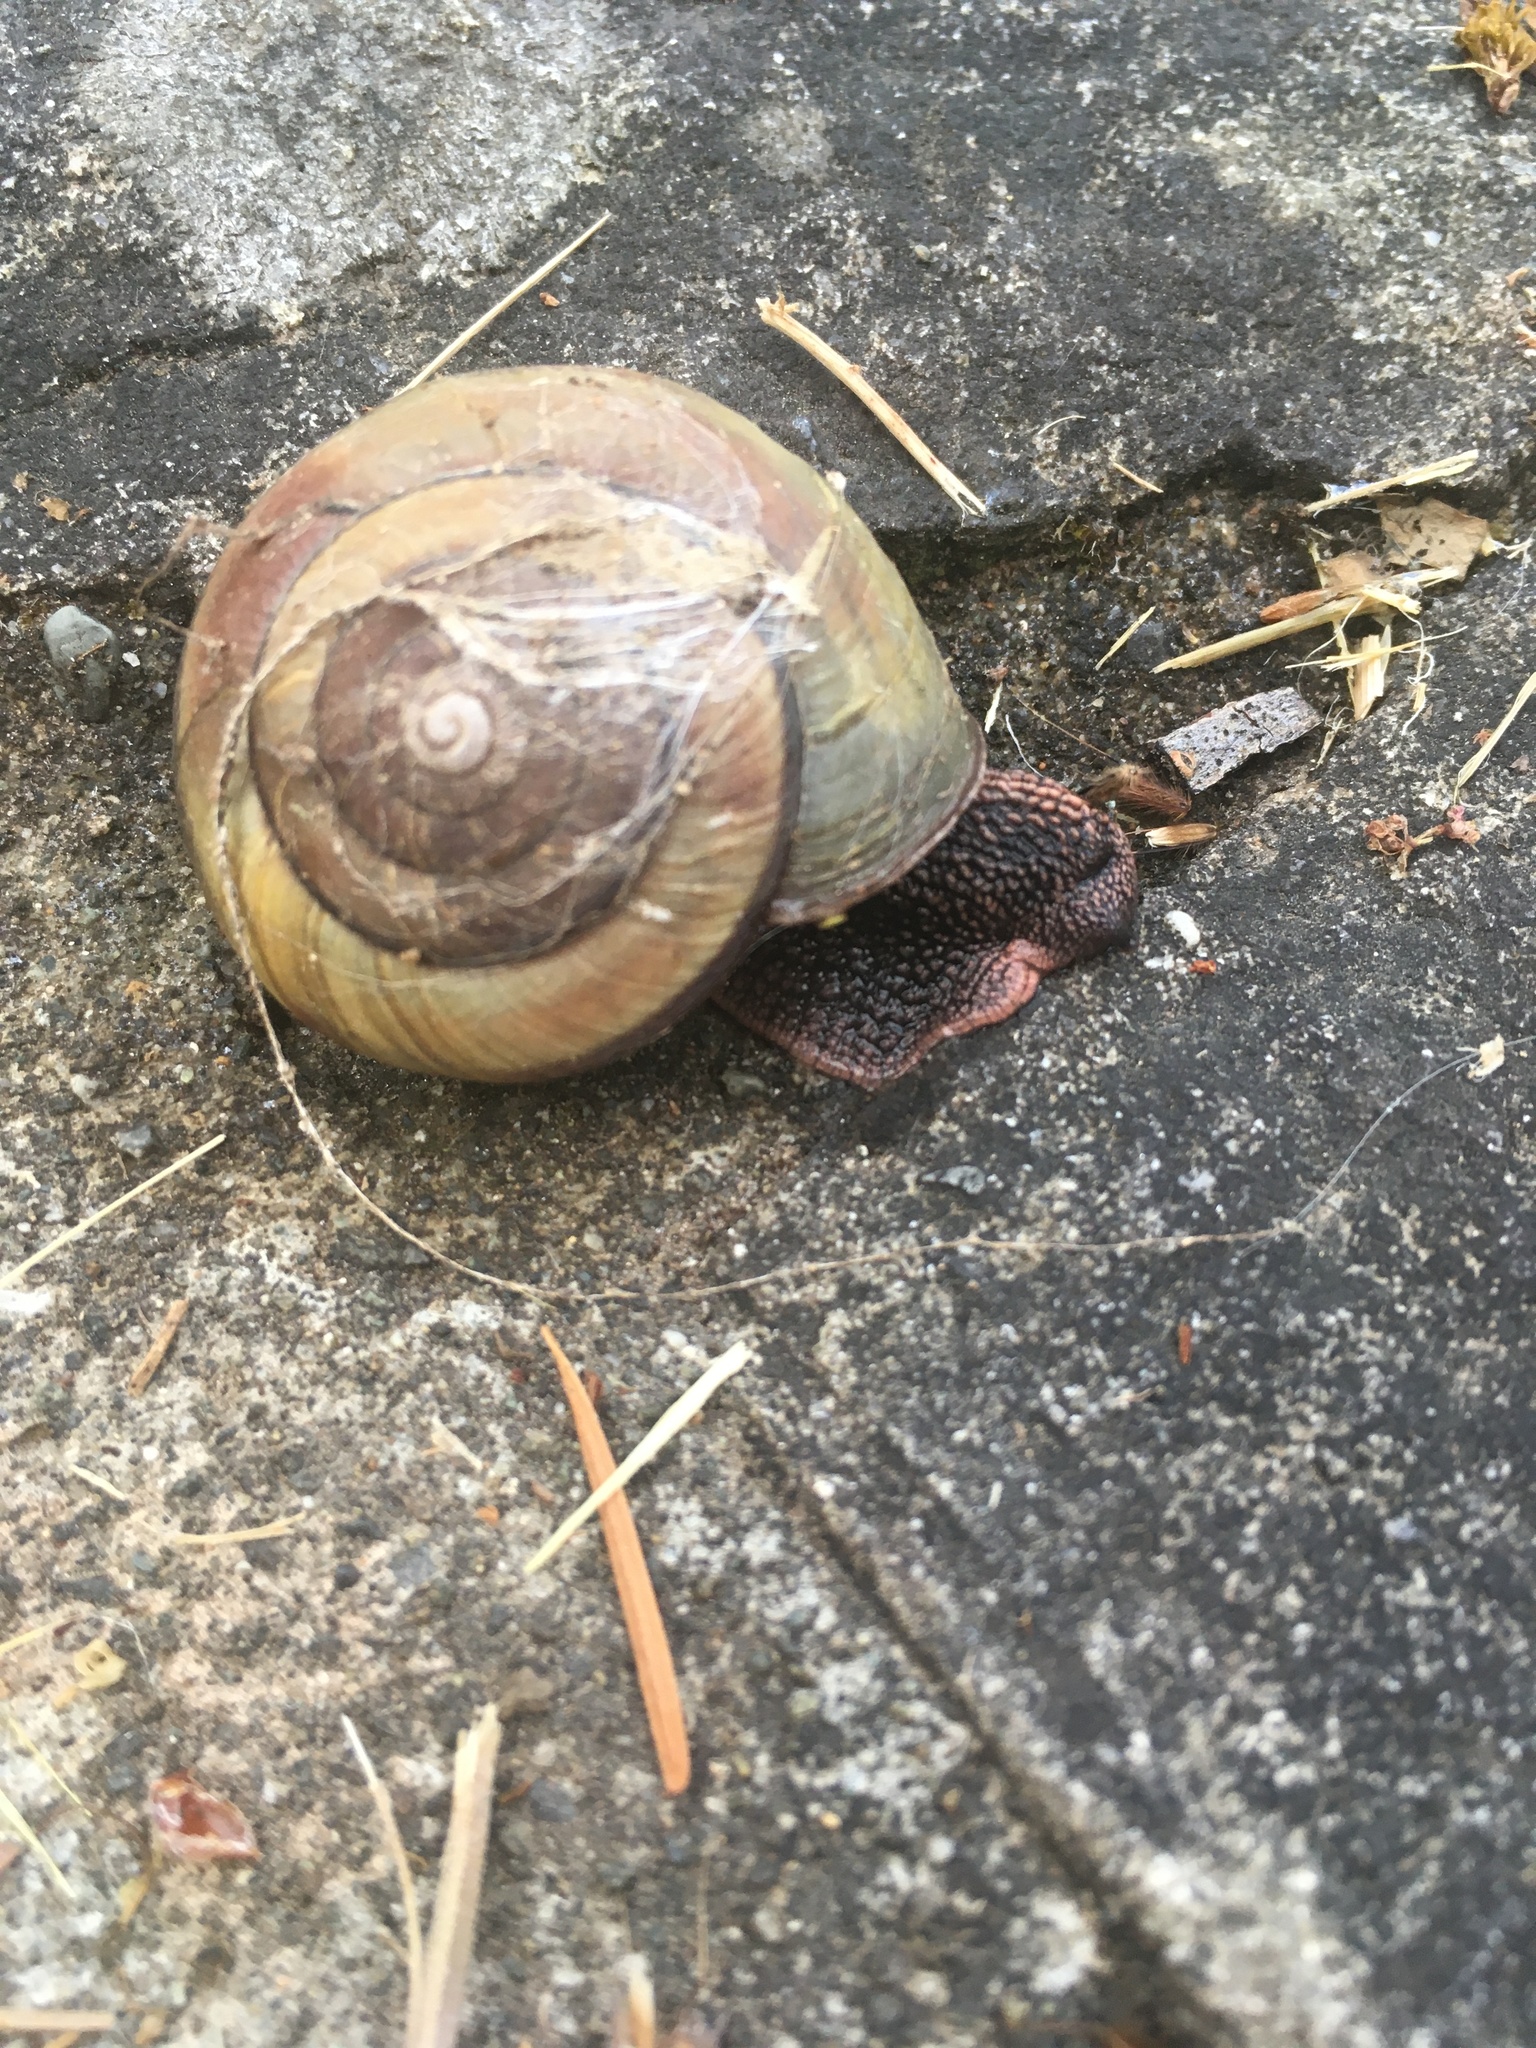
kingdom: Animalia
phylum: Mollusca
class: Gastropoda
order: Stylommatophora
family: Xanthonychidae
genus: Monadenia
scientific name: Monadenia fidelis
